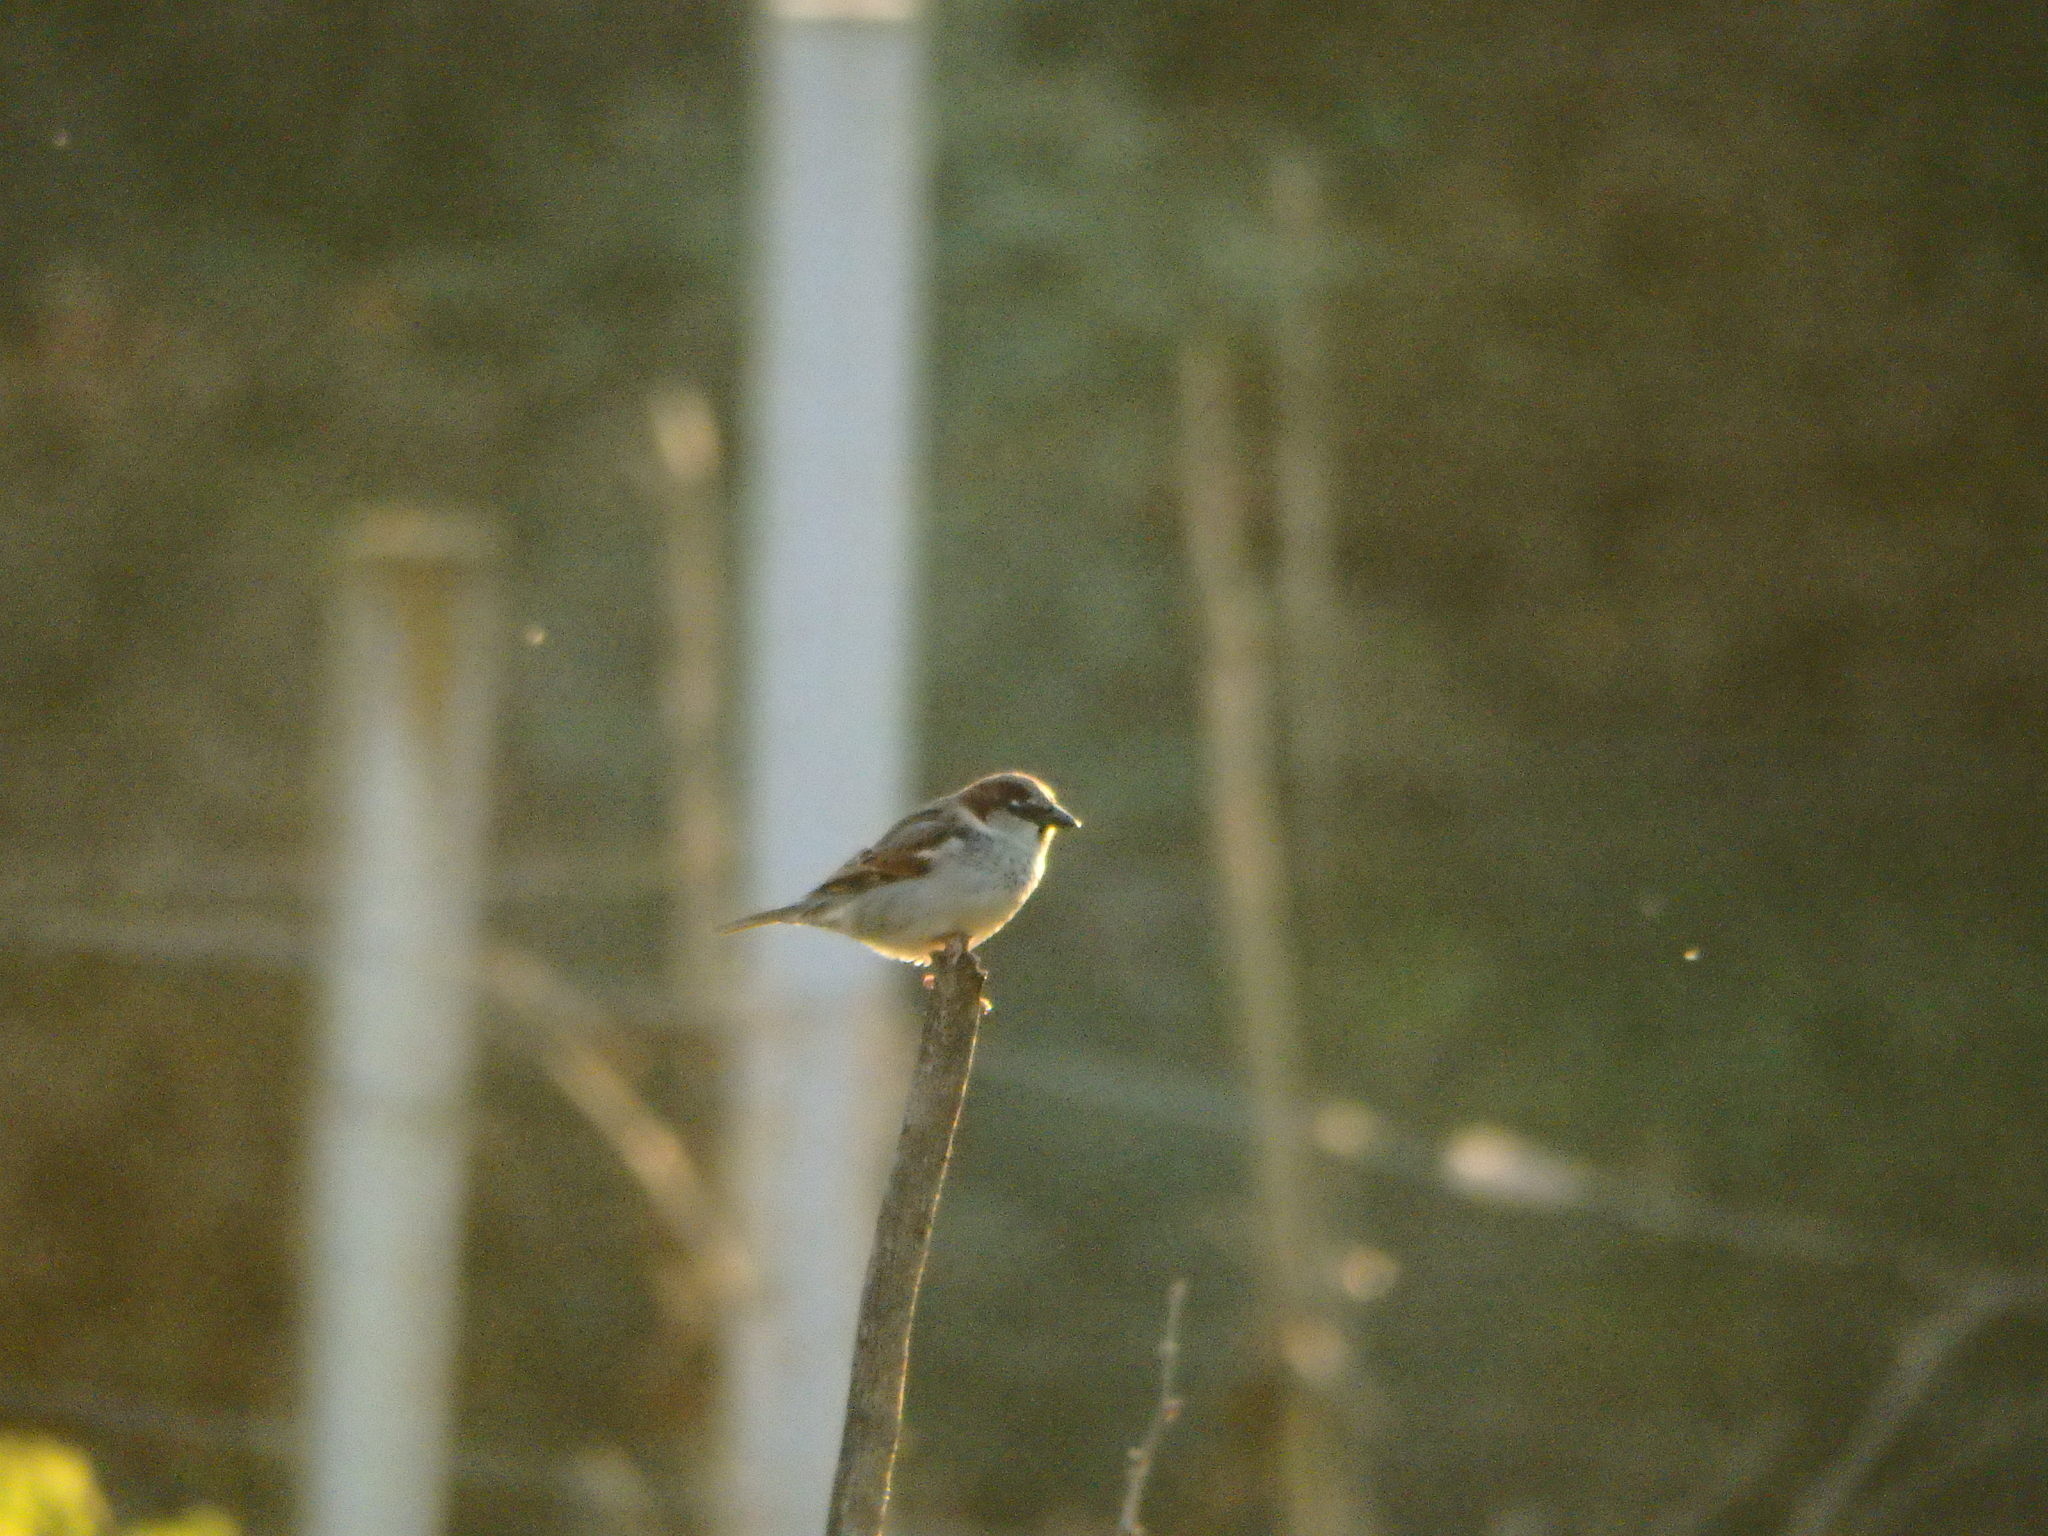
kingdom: Animalia
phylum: Chordata
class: Aves
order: Passeriformes
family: Passeridae
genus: Passer
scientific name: Passer domesticus
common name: House sparrow
